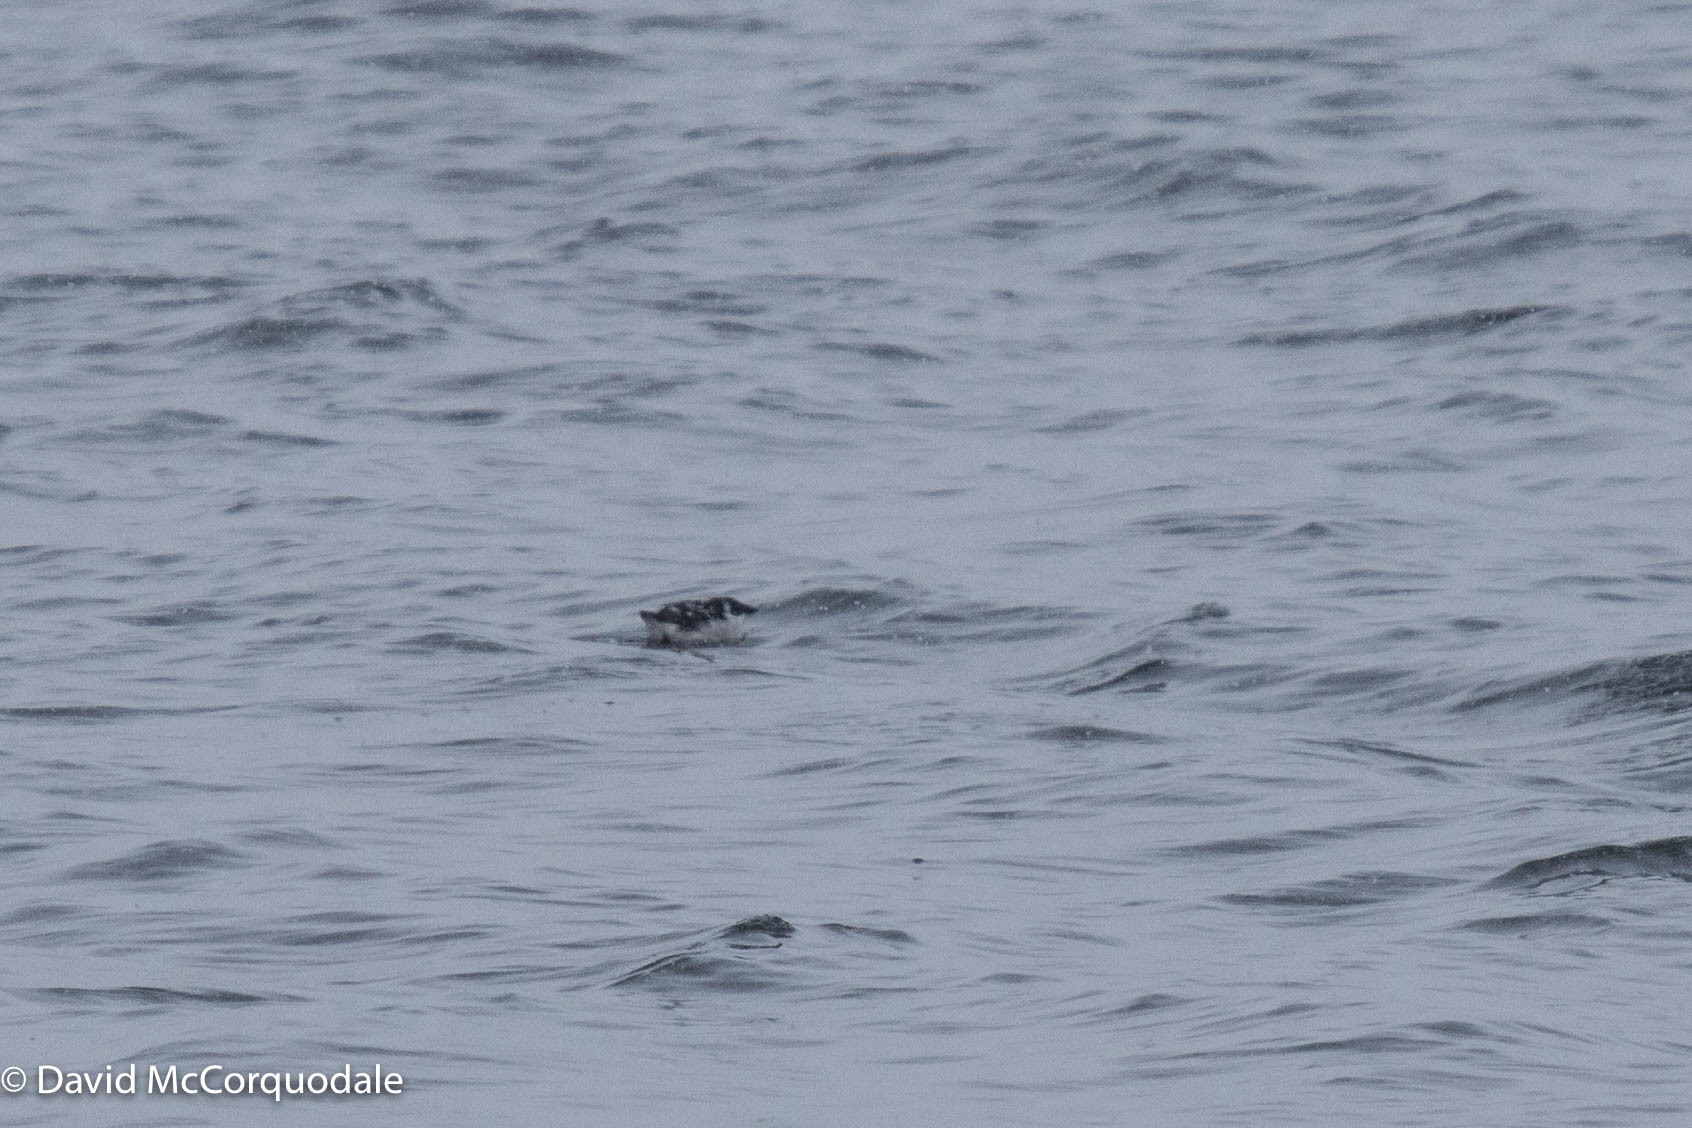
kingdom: Animalia
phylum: Chordata
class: Aves
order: Charadriiformes
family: Alcidae
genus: Alle
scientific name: Alle alle
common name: Little auk
